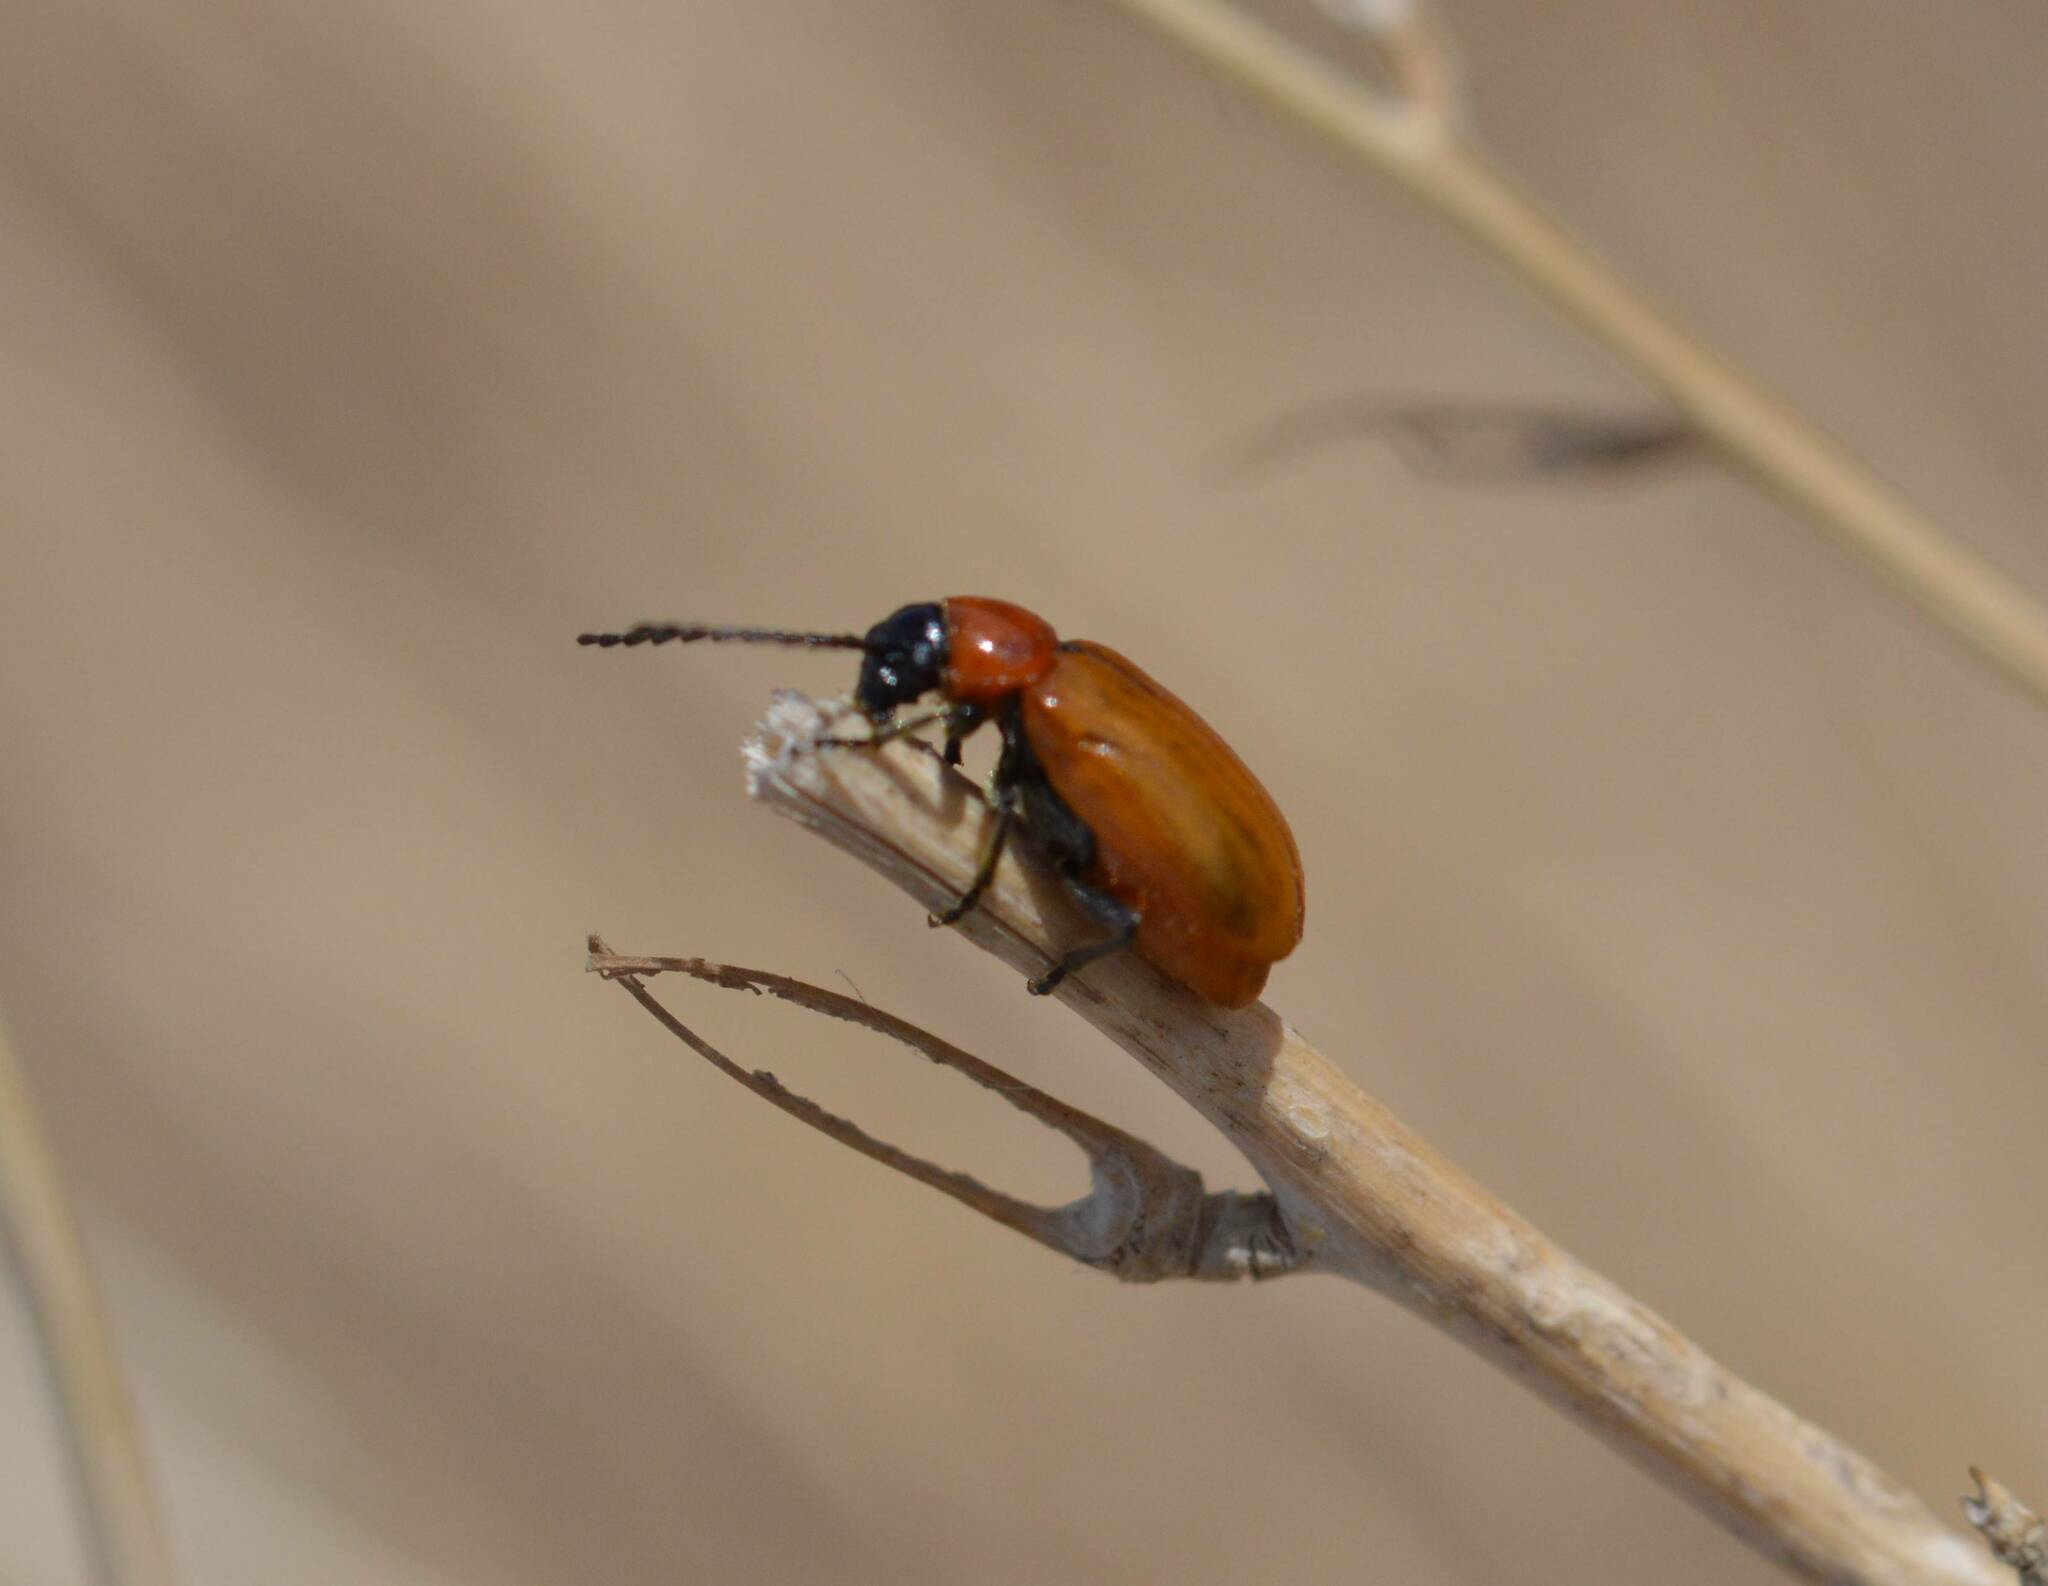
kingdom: Animalia
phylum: Arthropoda
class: Insecta
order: Coleoptera
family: Chrysomelidae
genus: Exosoma
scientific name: Exosoma lusitanicum
